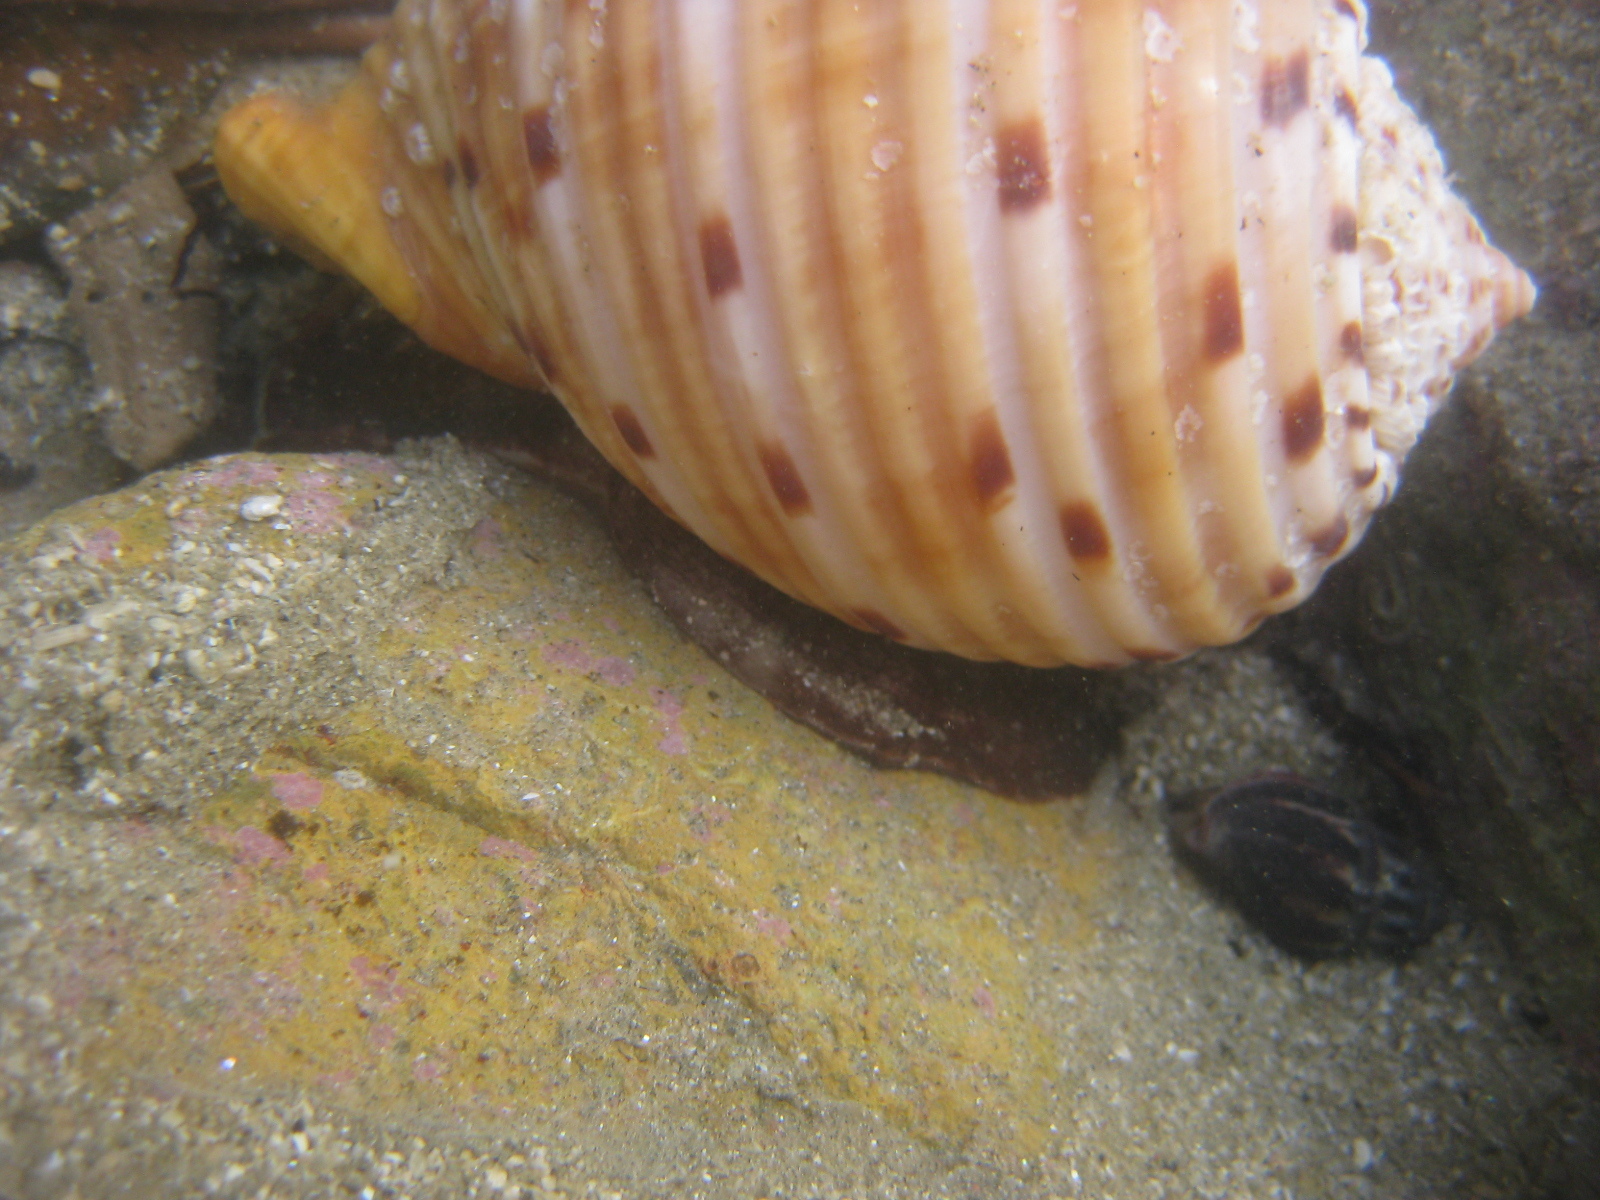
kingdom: Animalia
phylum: Mollusca
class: Gastropoda
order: Neogastropoda
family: Cominellidae
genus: Cominella
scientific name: Cominella glandiformis
